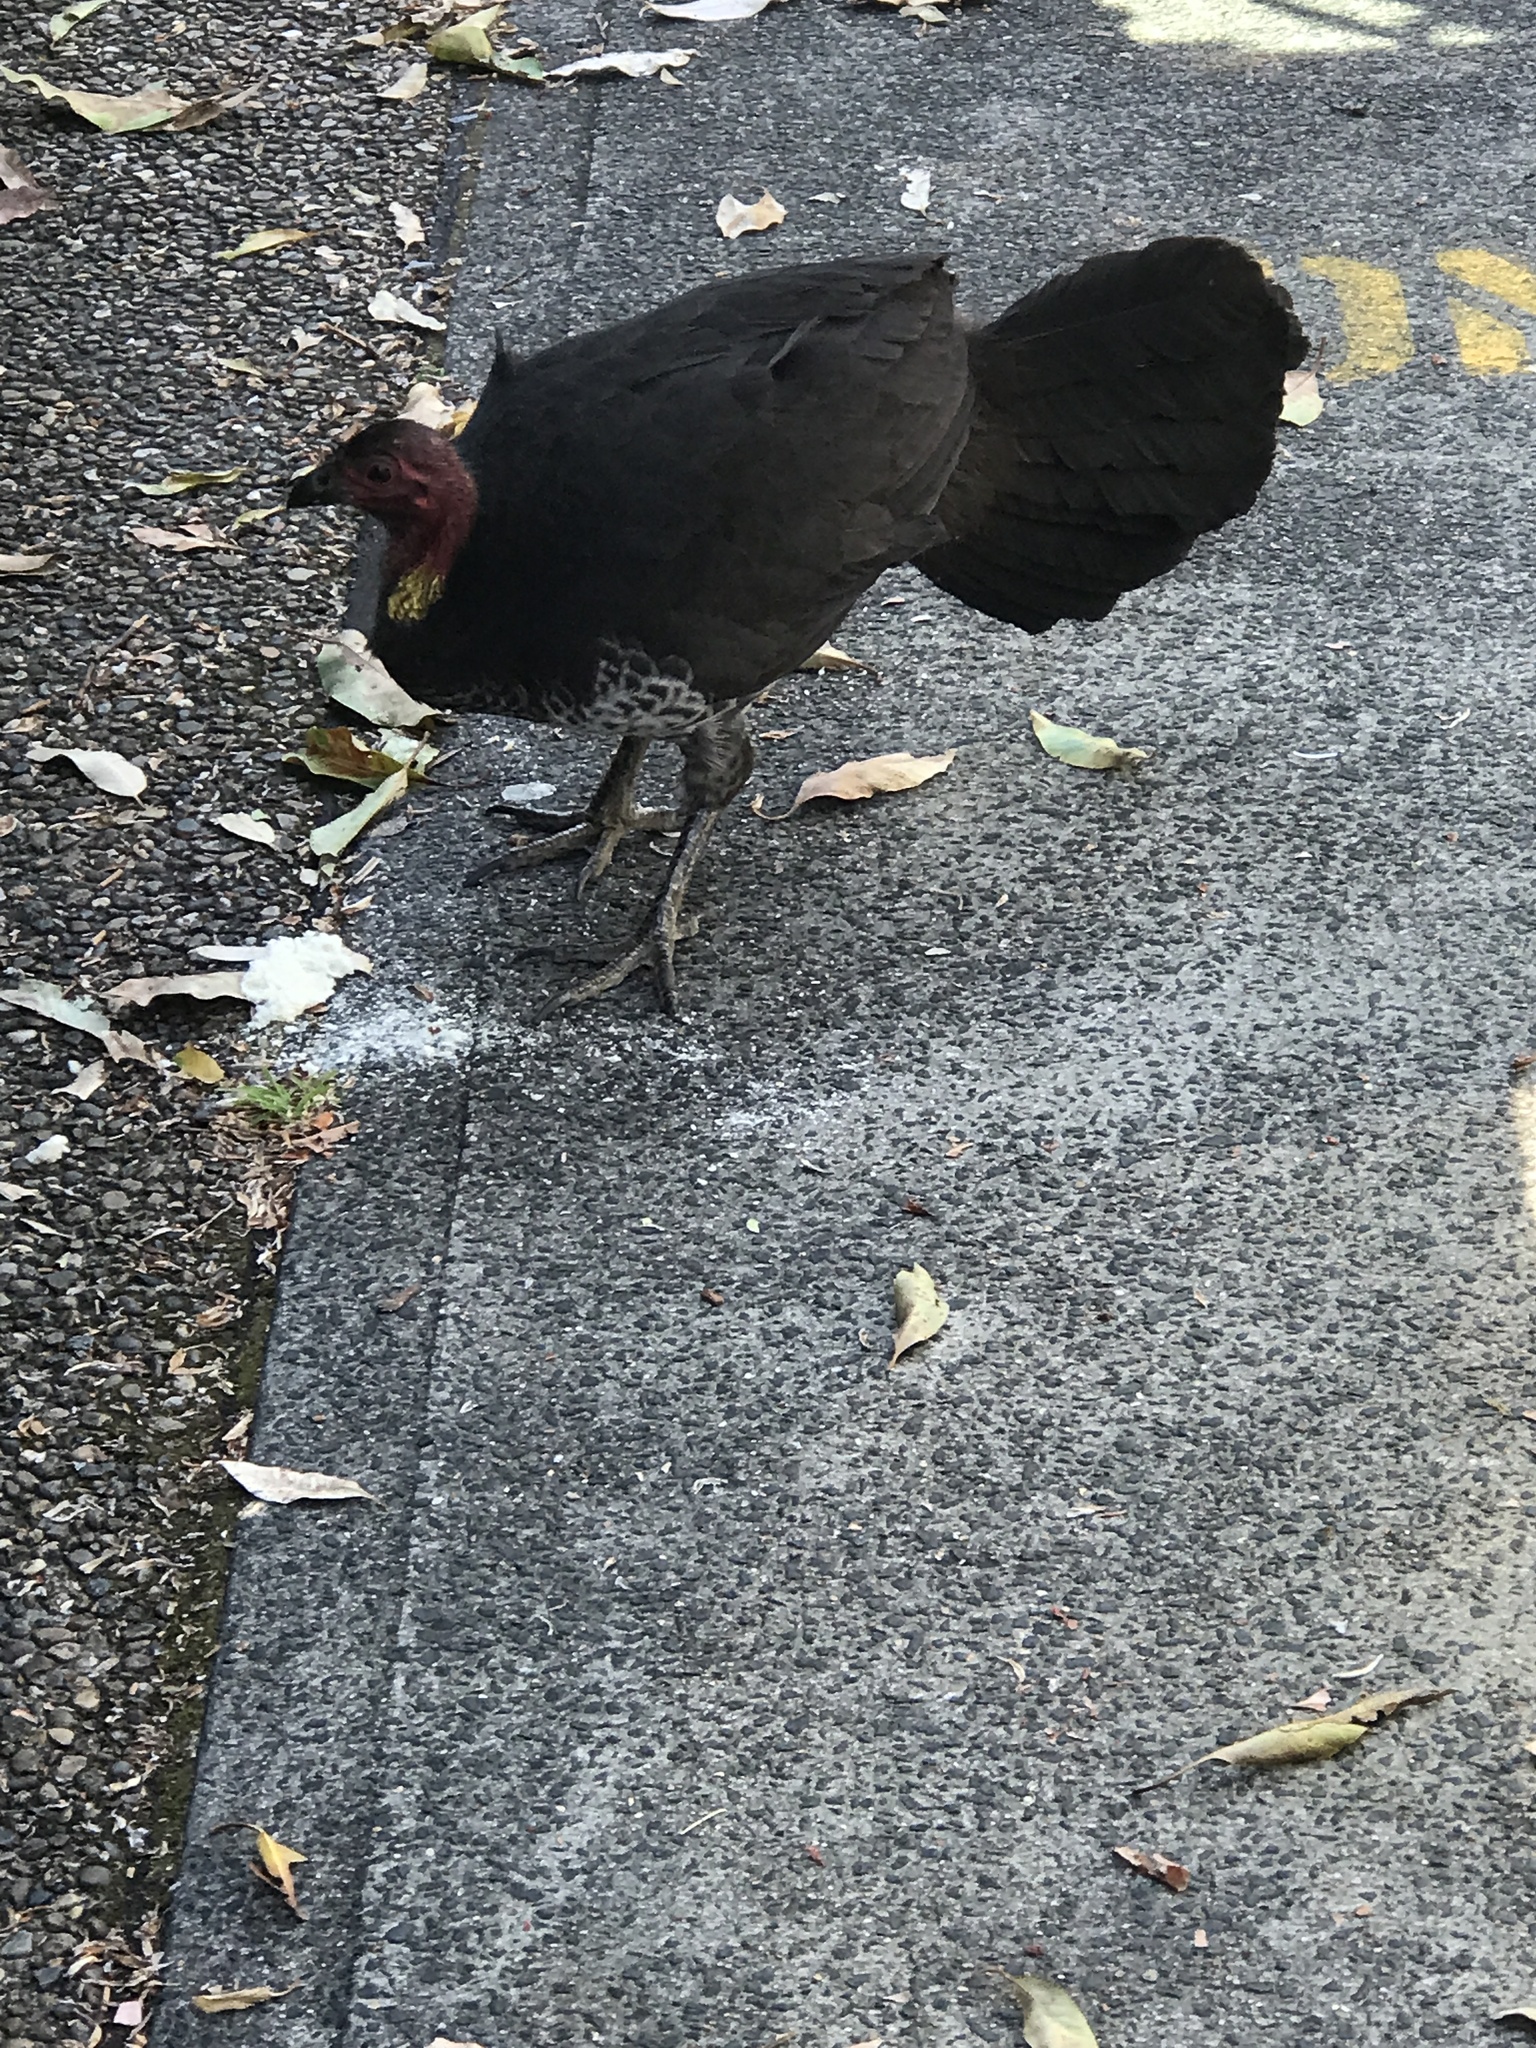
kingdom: Animalia
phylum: Chordata
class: Aves
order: Galliformes
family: Megapodiidae
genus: Alectura
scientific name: Alectura lathami
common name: Australian brushturkey
